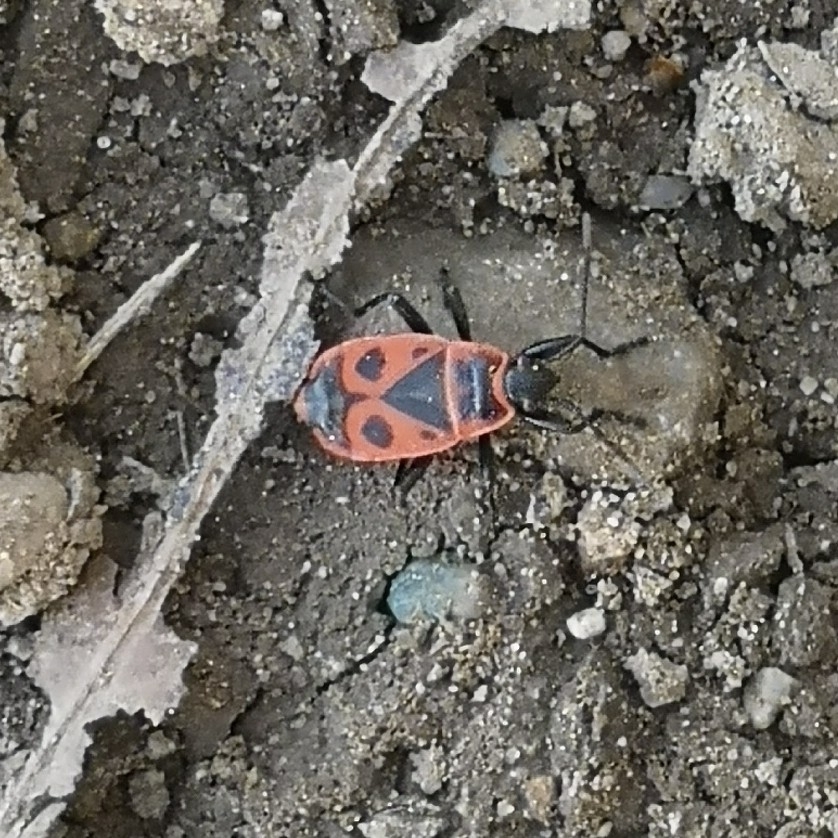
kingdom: Animalia
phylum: Arthropoda
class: Insecta
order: Hemiptera
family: Pyrrhocoridae
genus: Pyrrhocoris
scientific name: Pyrrhocoris apterus
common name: Firebug
